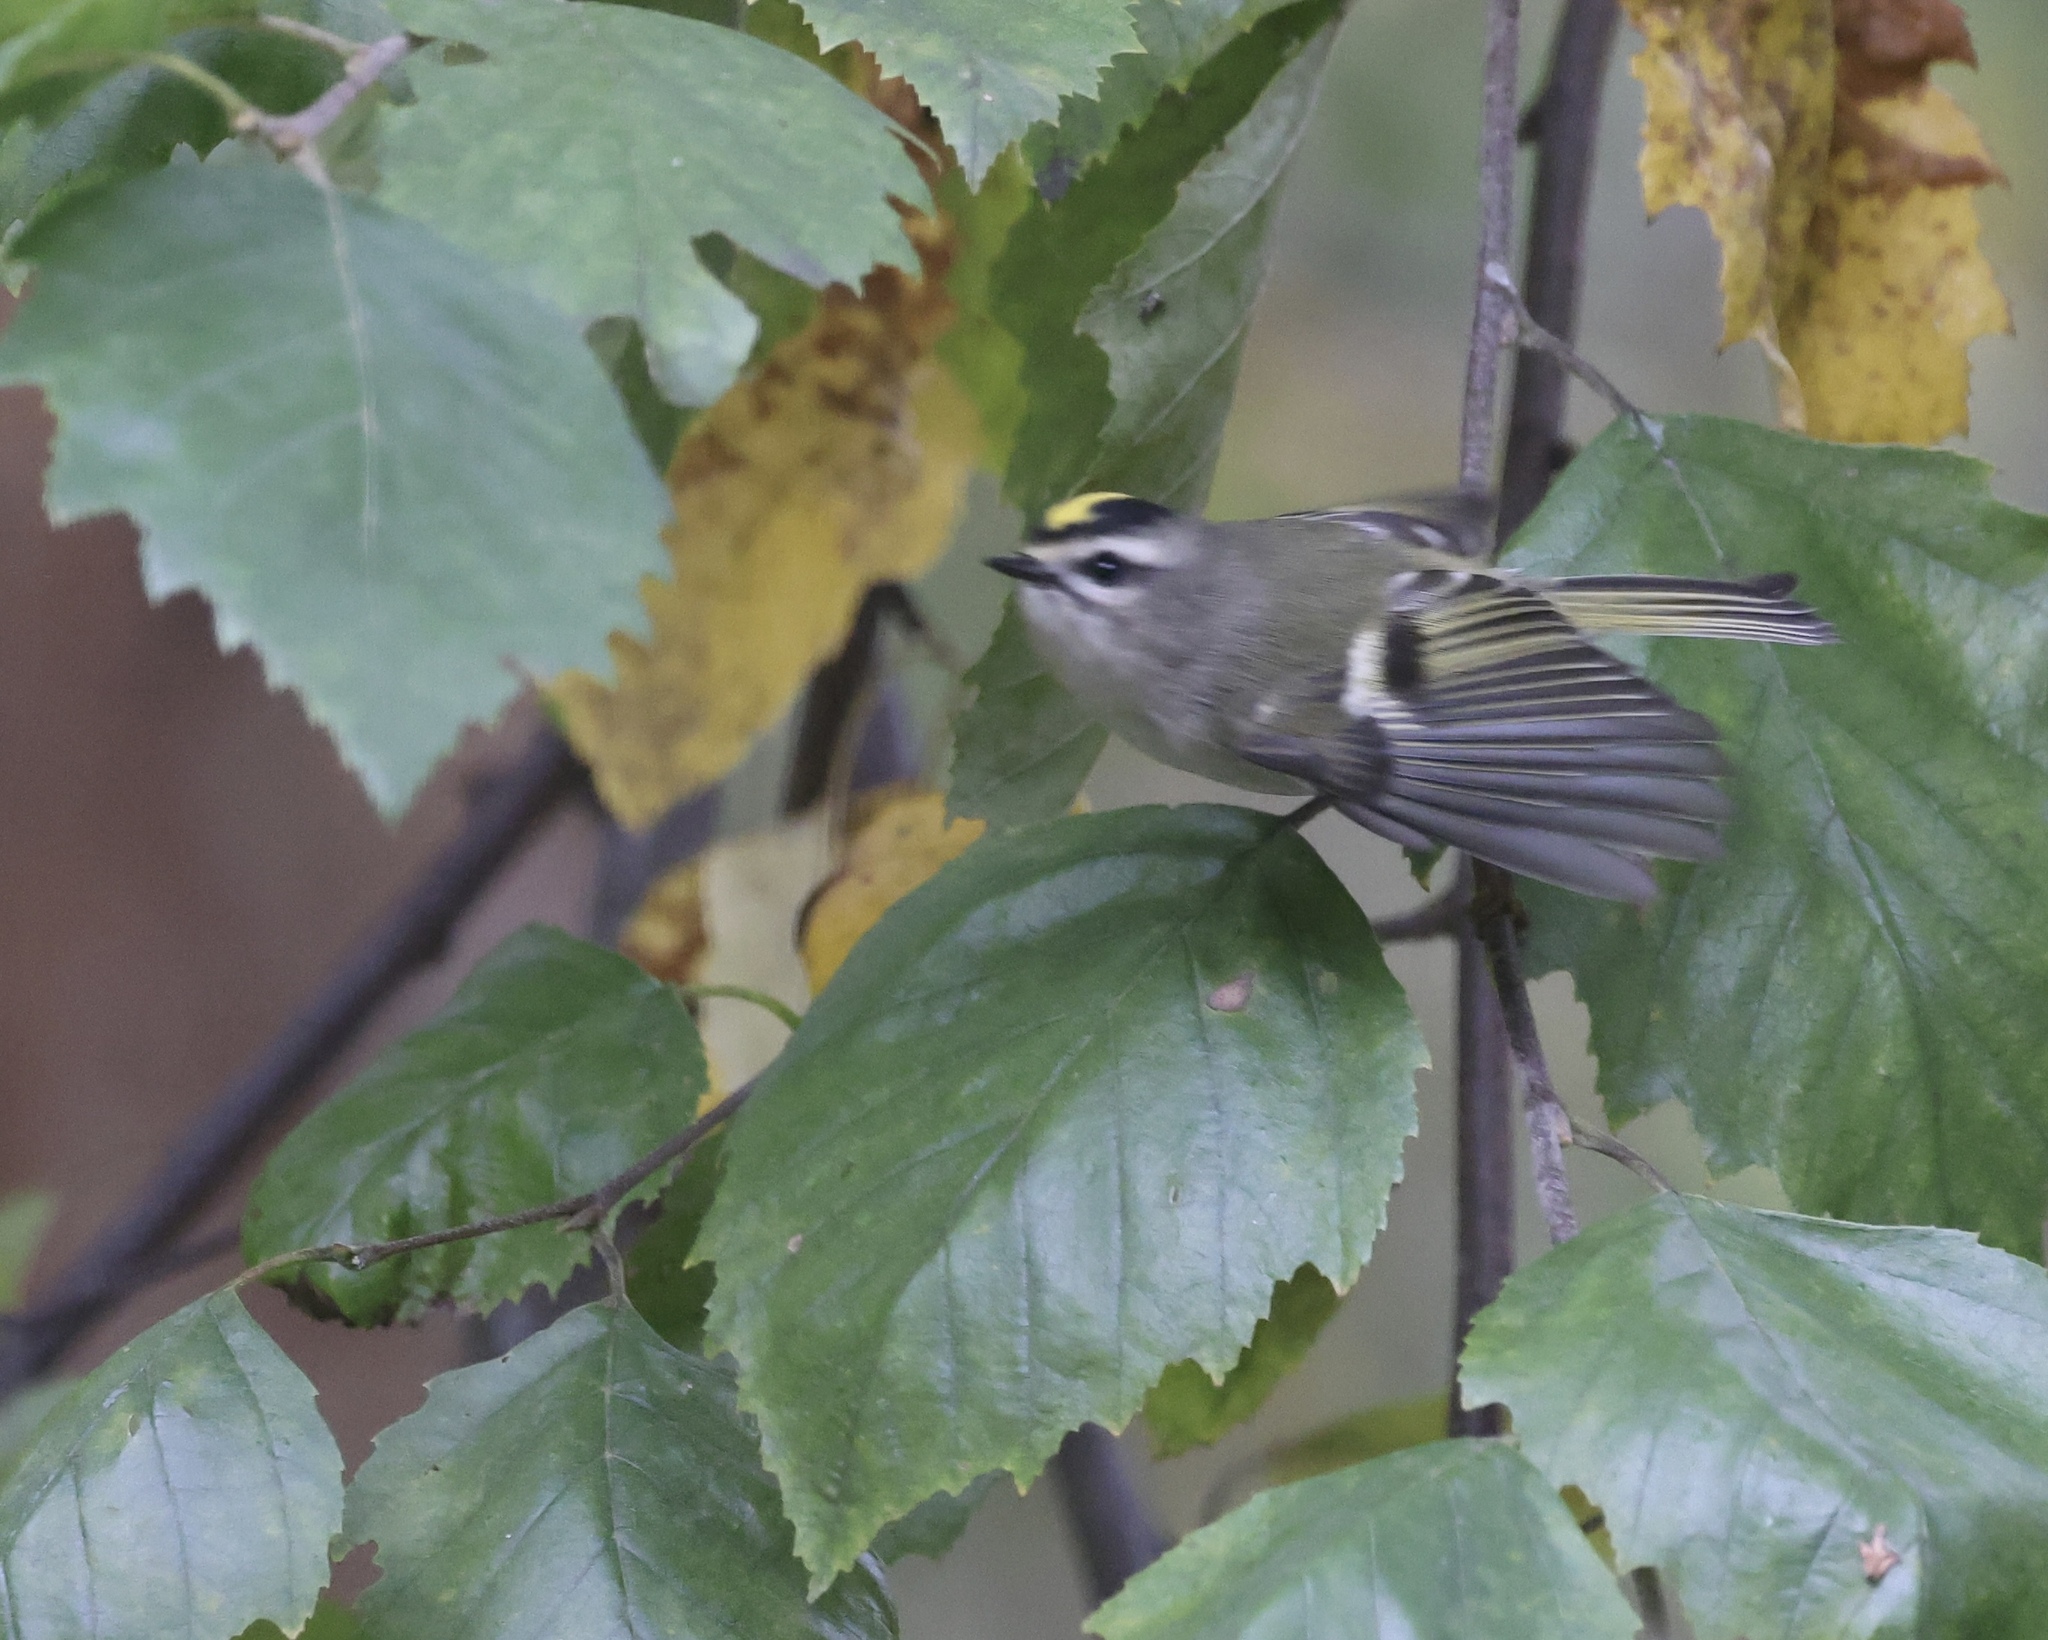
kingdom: Animalia
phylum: Chordata
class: Aves
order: Passeriformes
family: Regulidae
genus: Regulus
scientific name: Regulus satrapa
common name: Golden-crowned kinglet
